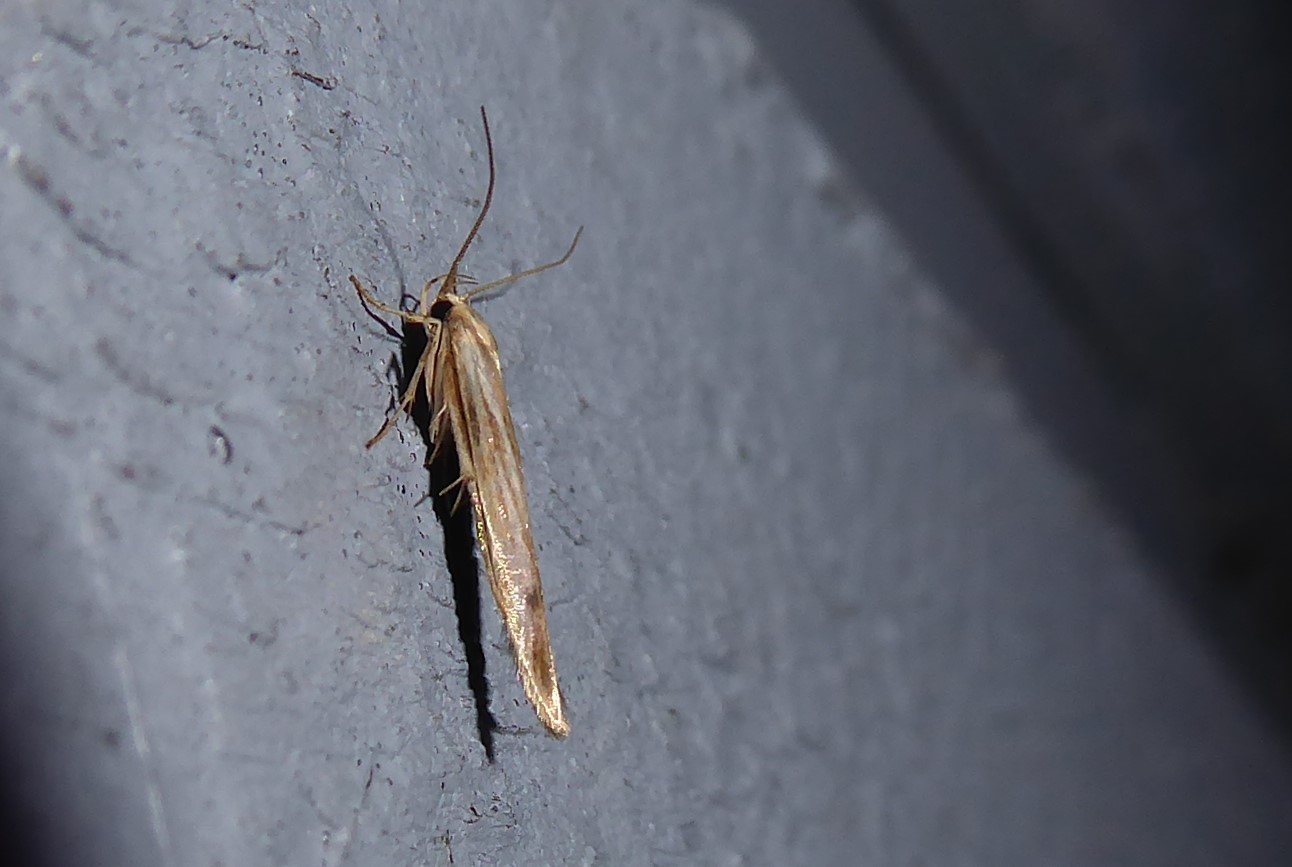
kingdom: Animalia
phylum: Arthropoda
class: Insecta
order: Lepidoptera
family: Stathmopodidae
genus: Stathmopoda
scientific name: Stathmopoda aposema
